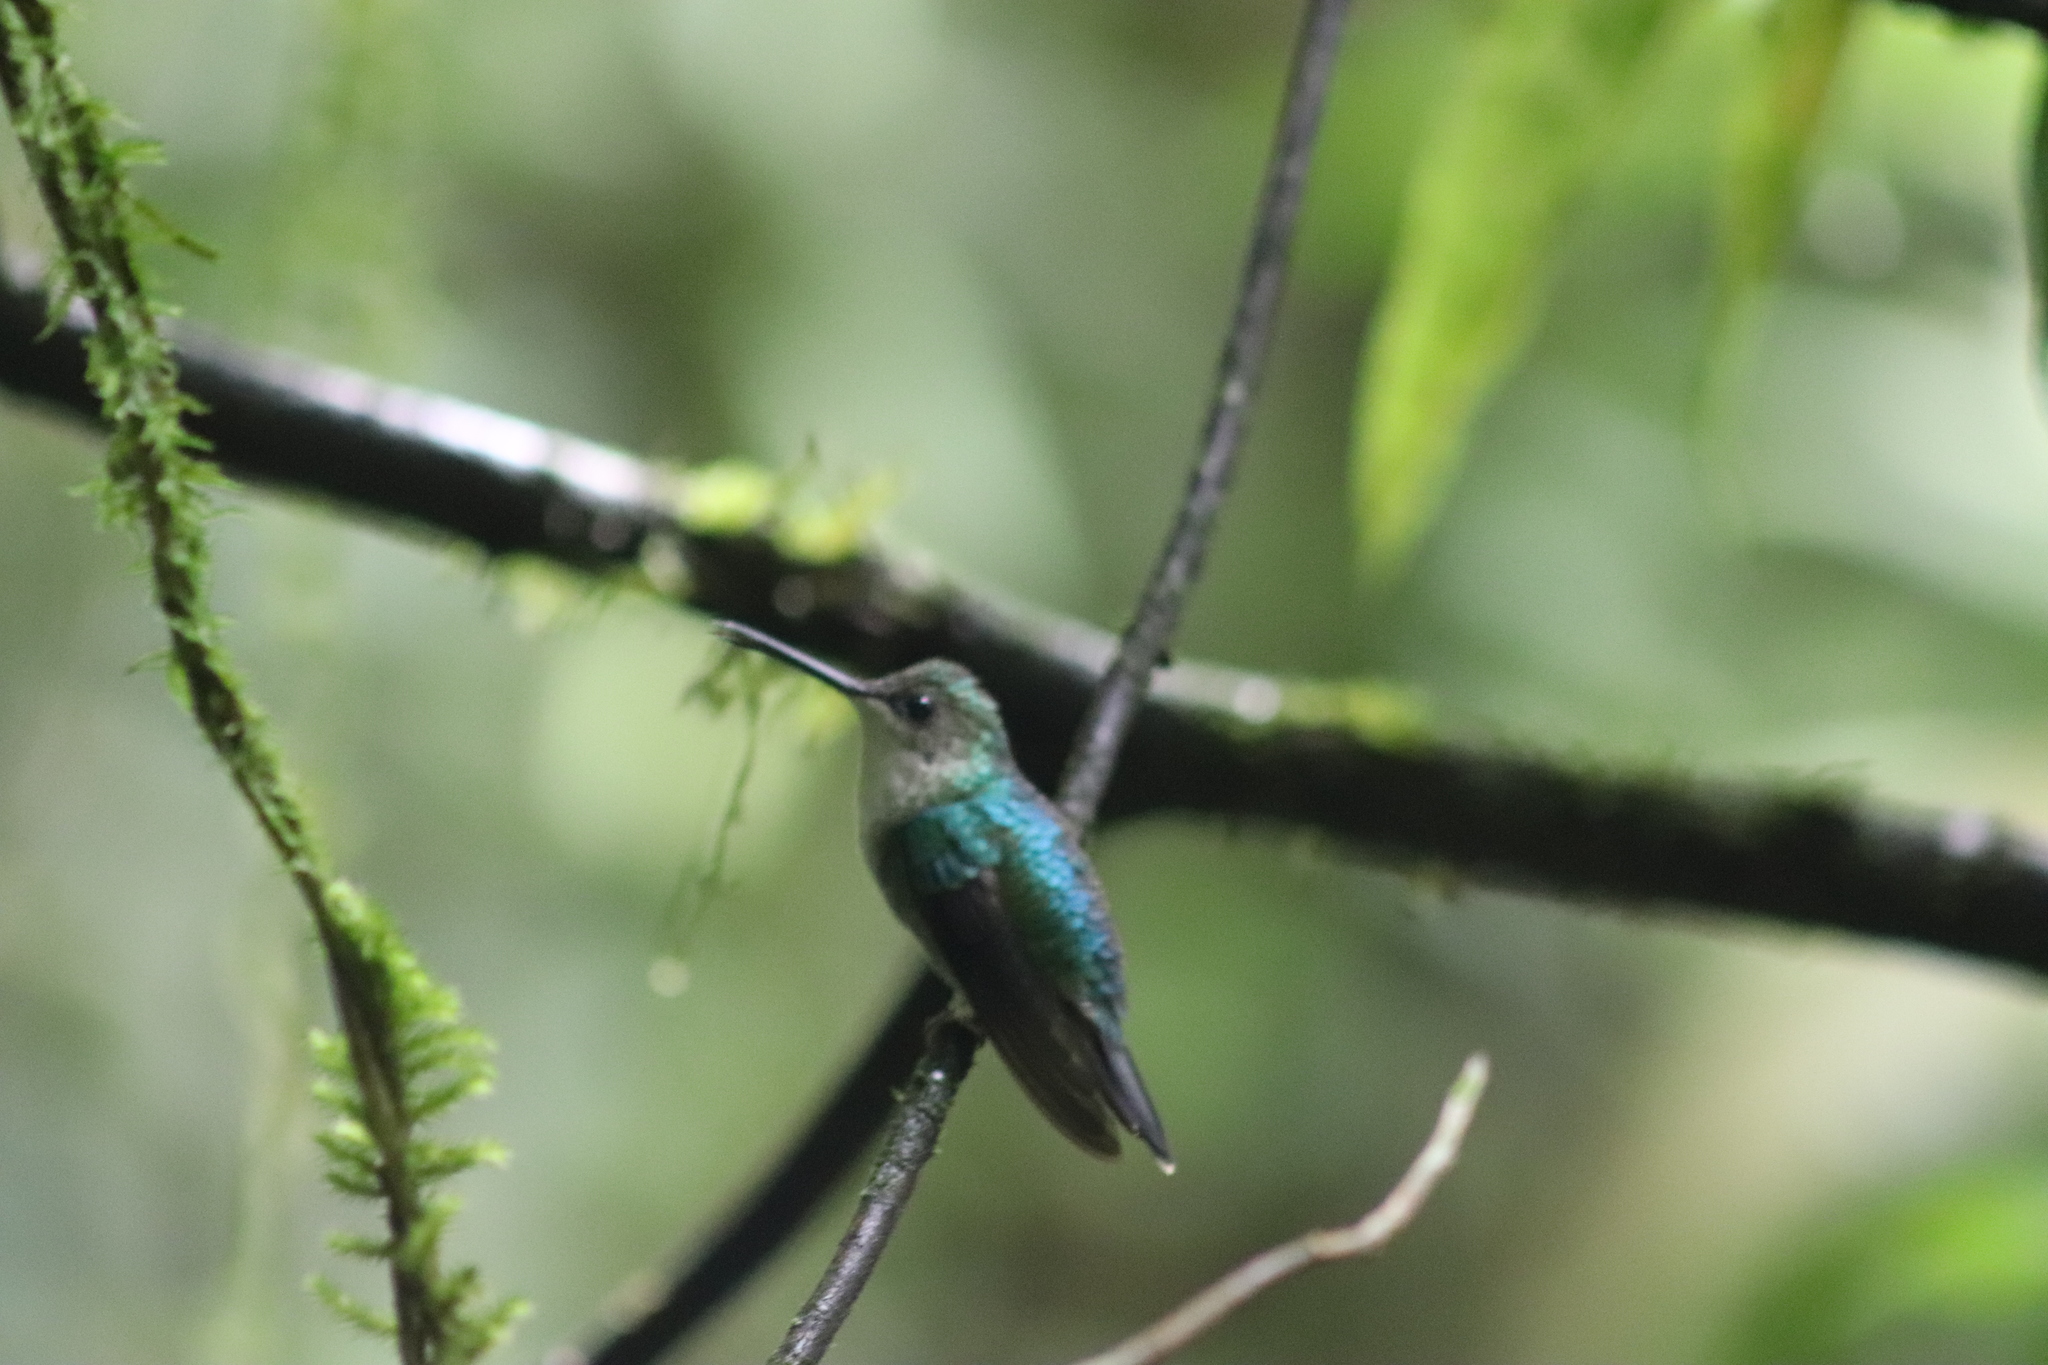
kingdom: Animalia
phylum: Chordata
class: Aves
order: Apodiformes
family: Trochilidae
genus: Thalurania
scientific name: Thalurania colombica
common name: Crowned woodnymph
